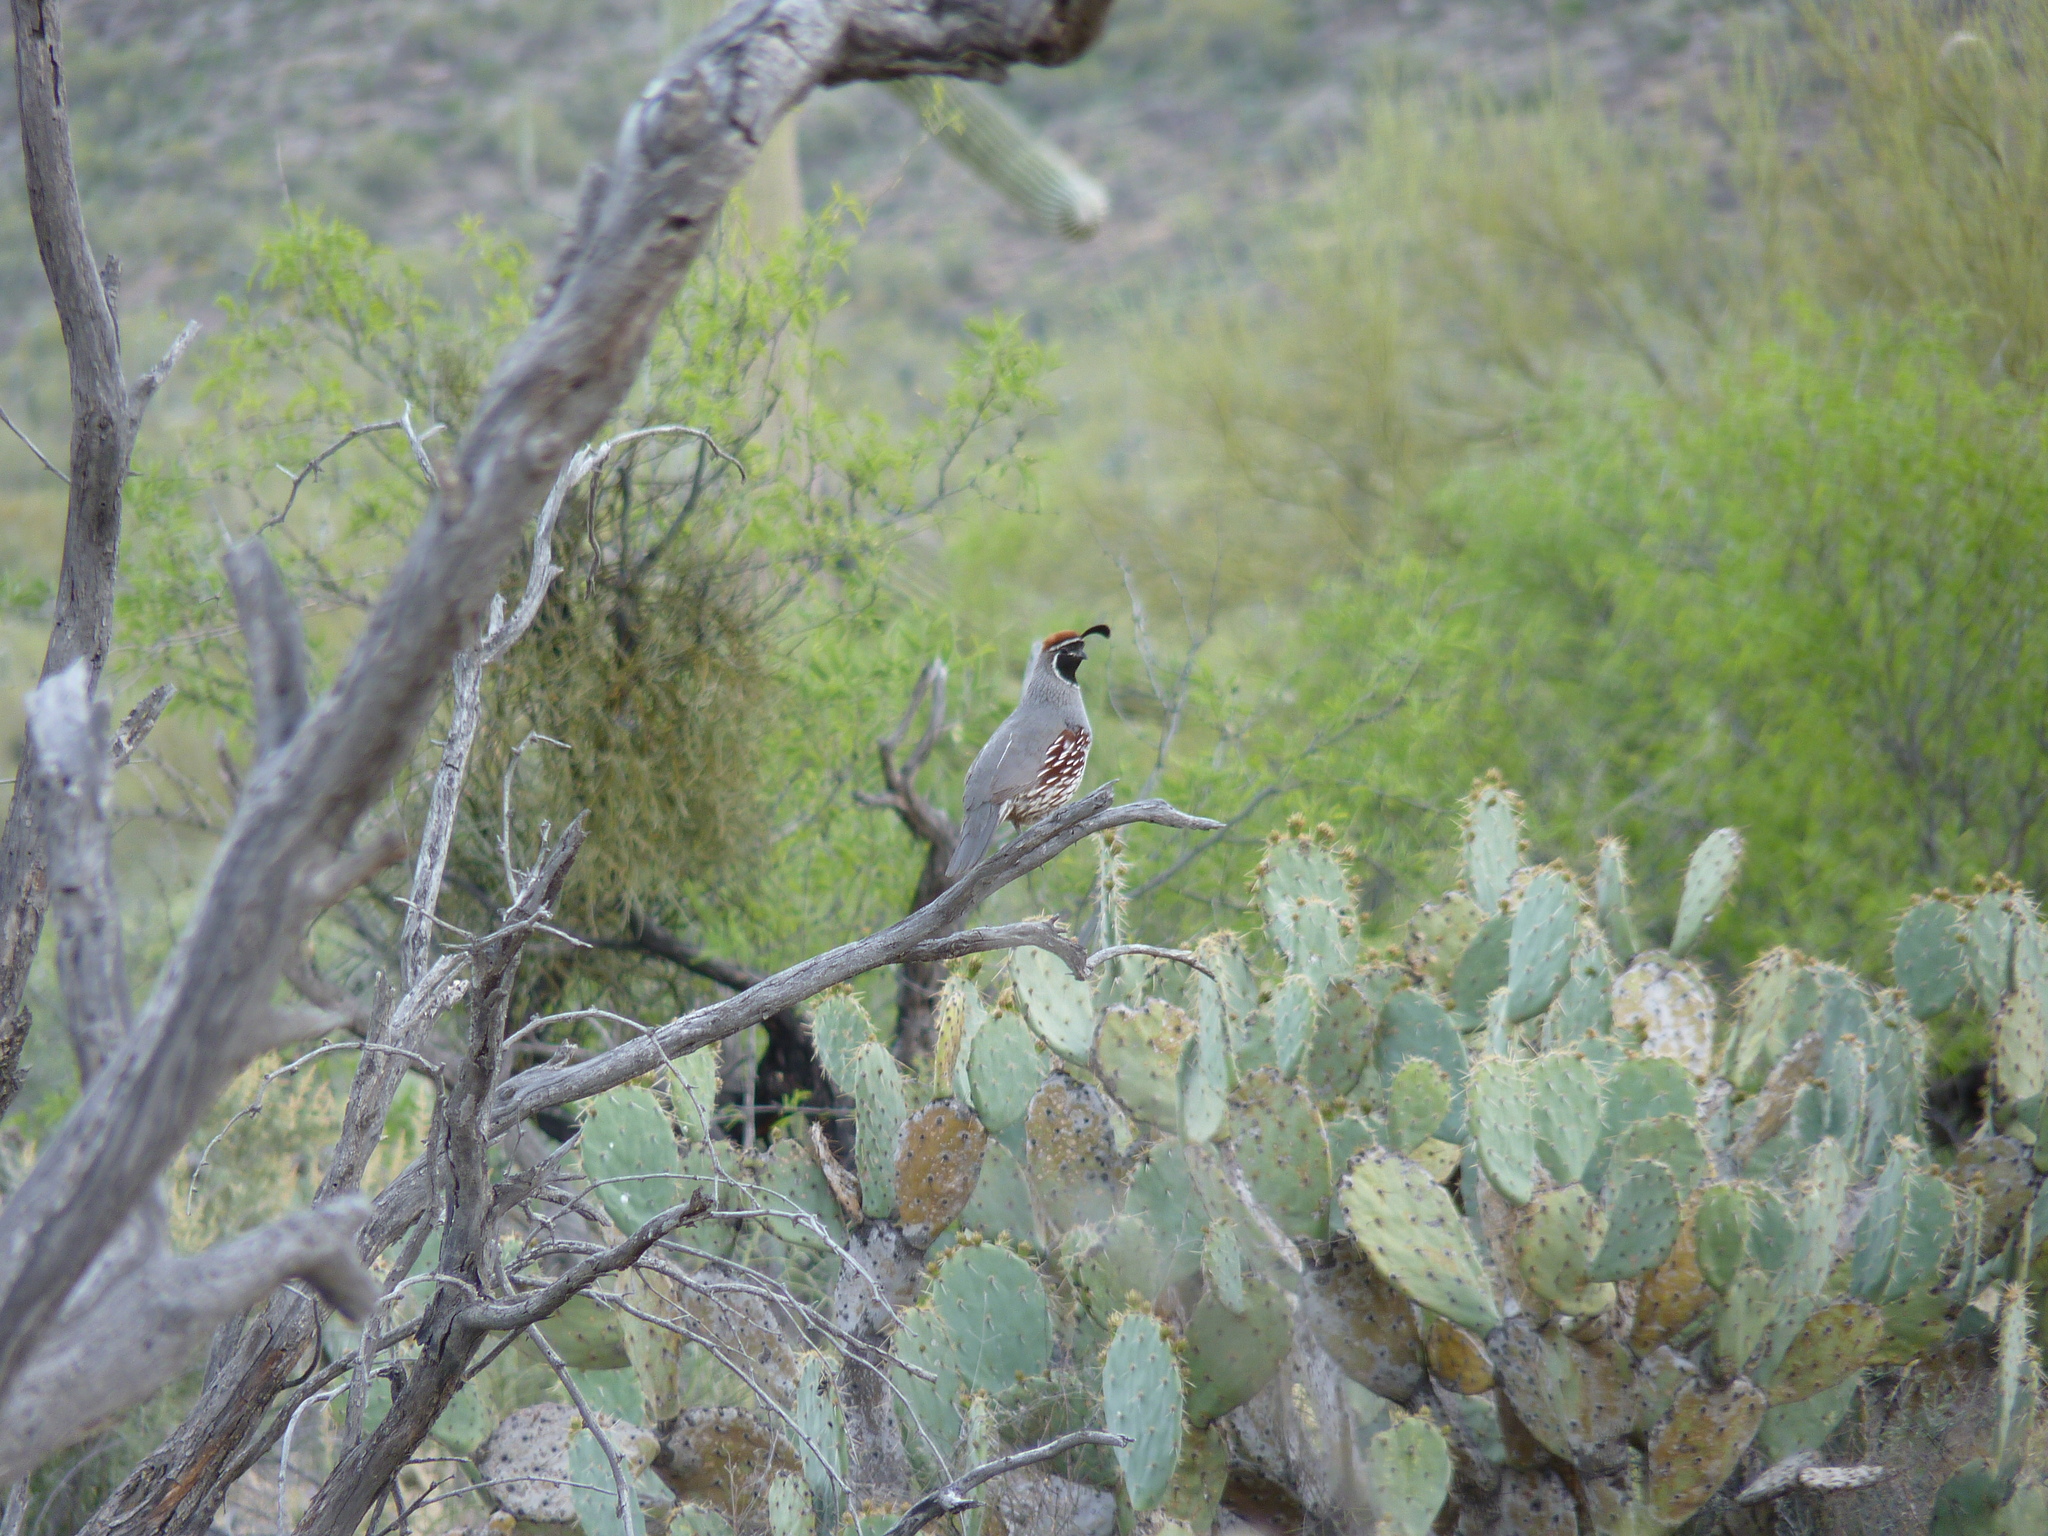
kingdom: Animalia
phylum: Chordata
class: Aves
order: Galliformes
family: Odontophoridae
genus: Callipepla
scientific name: Callipepla gambelii
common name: Gambel's quail
